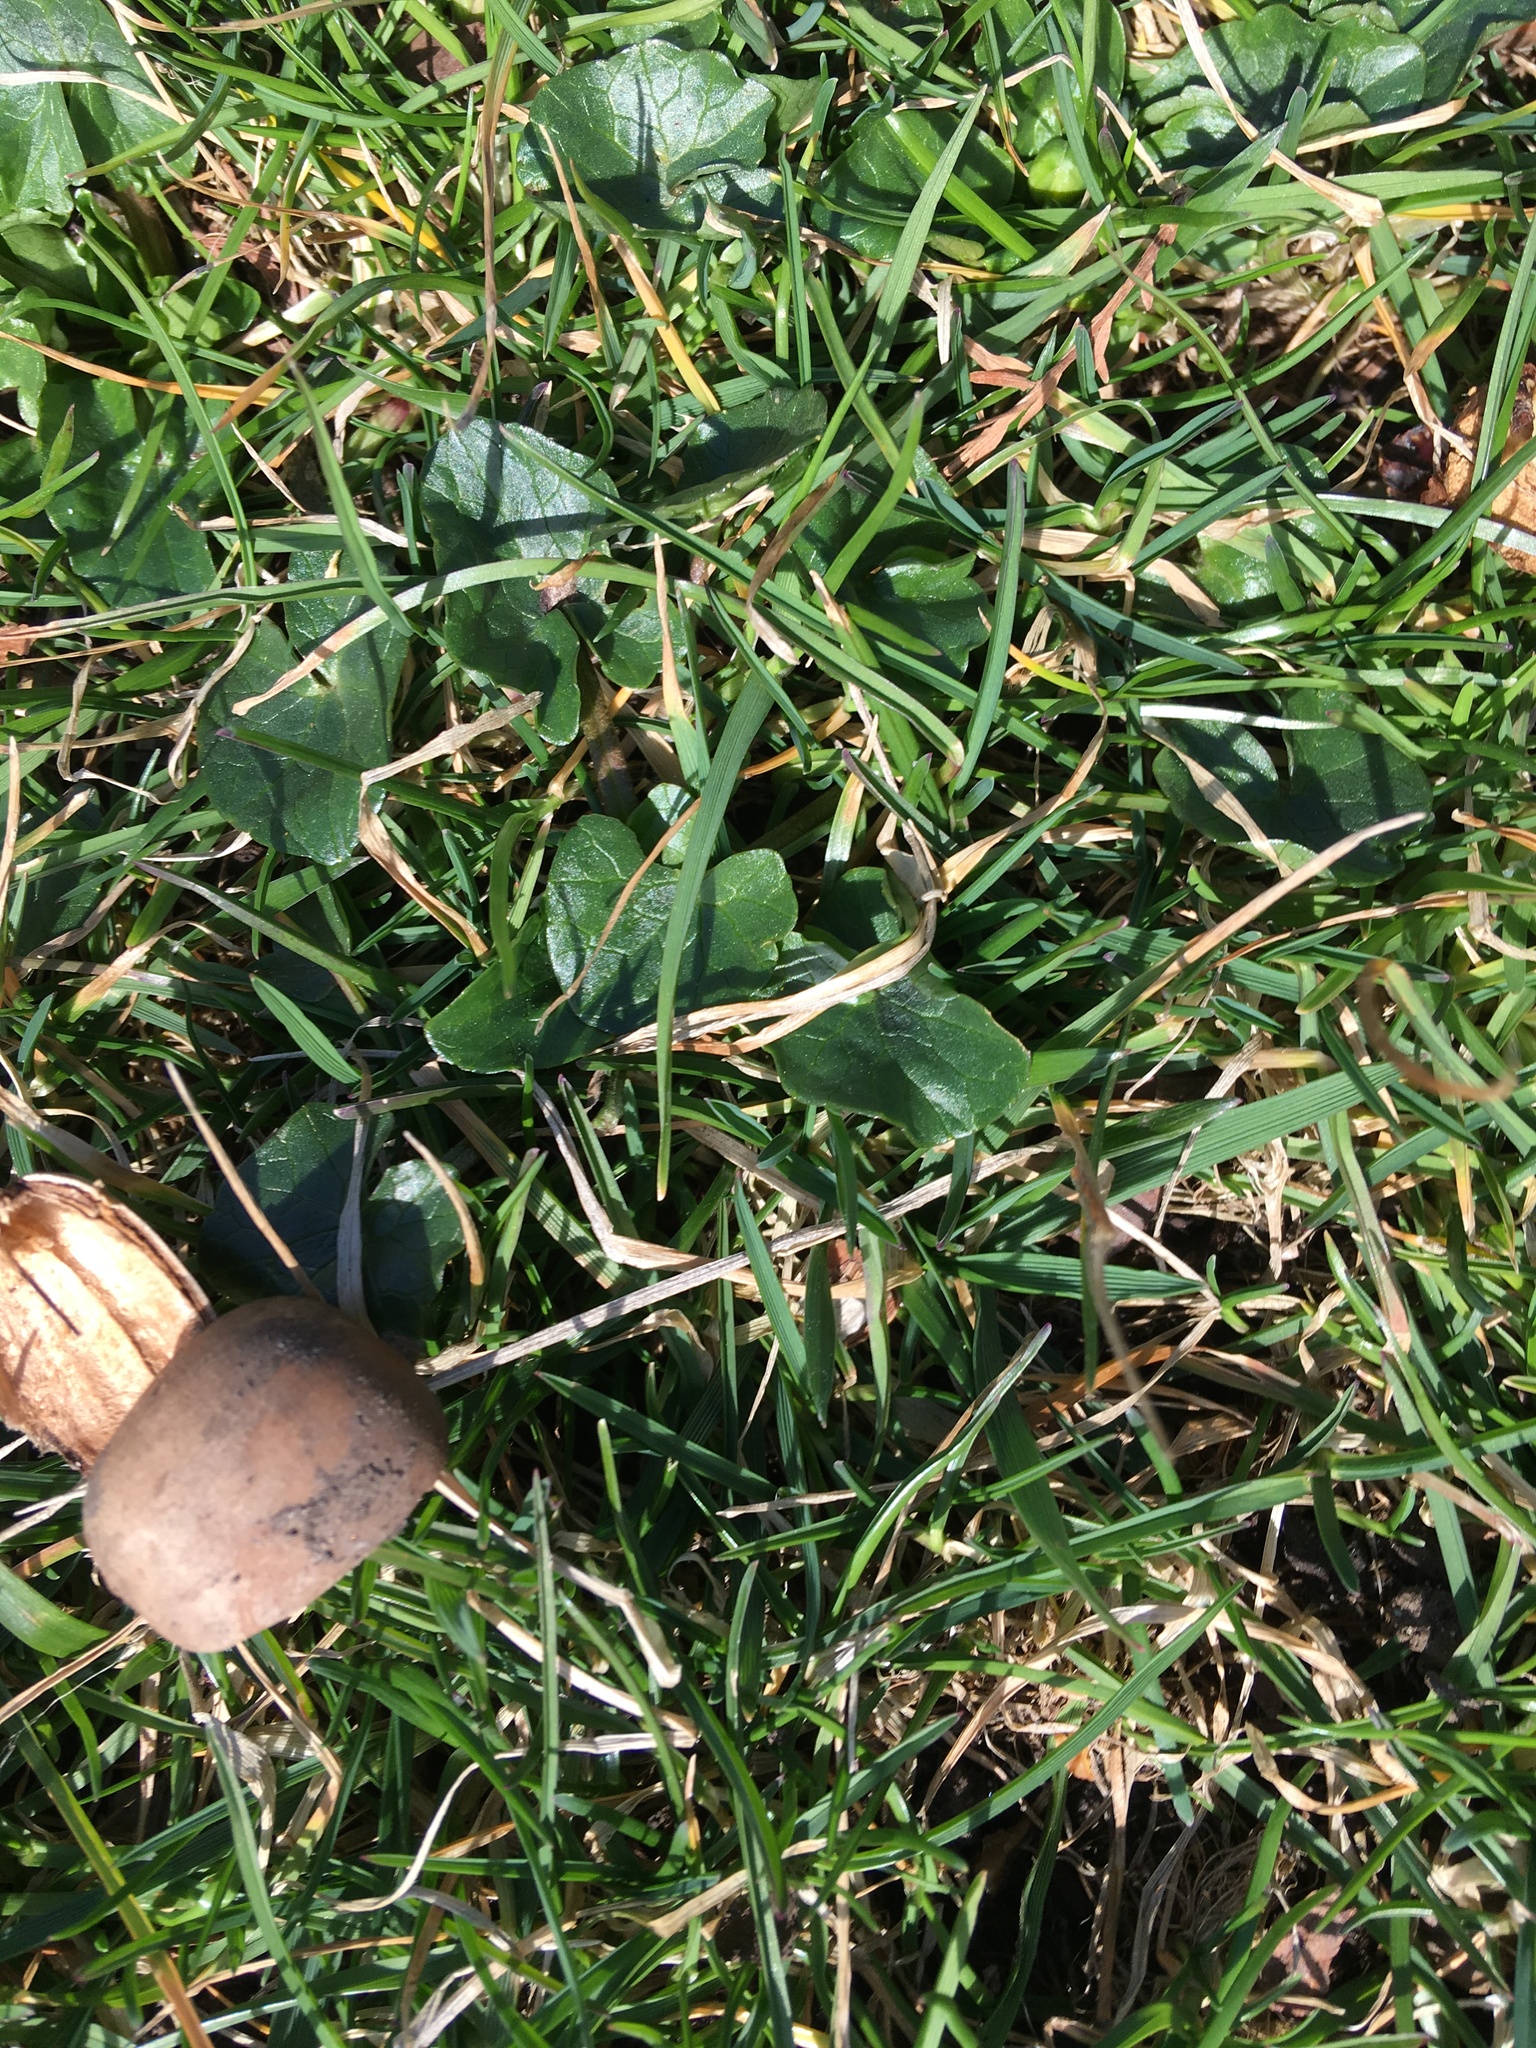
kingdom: Plantae
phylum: Tracheophyta
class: Magnoliopsida
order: Ranunculales
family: Ranunculaceae
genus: Ficaria
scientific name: Ficaria verna
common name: Lesser celandine
